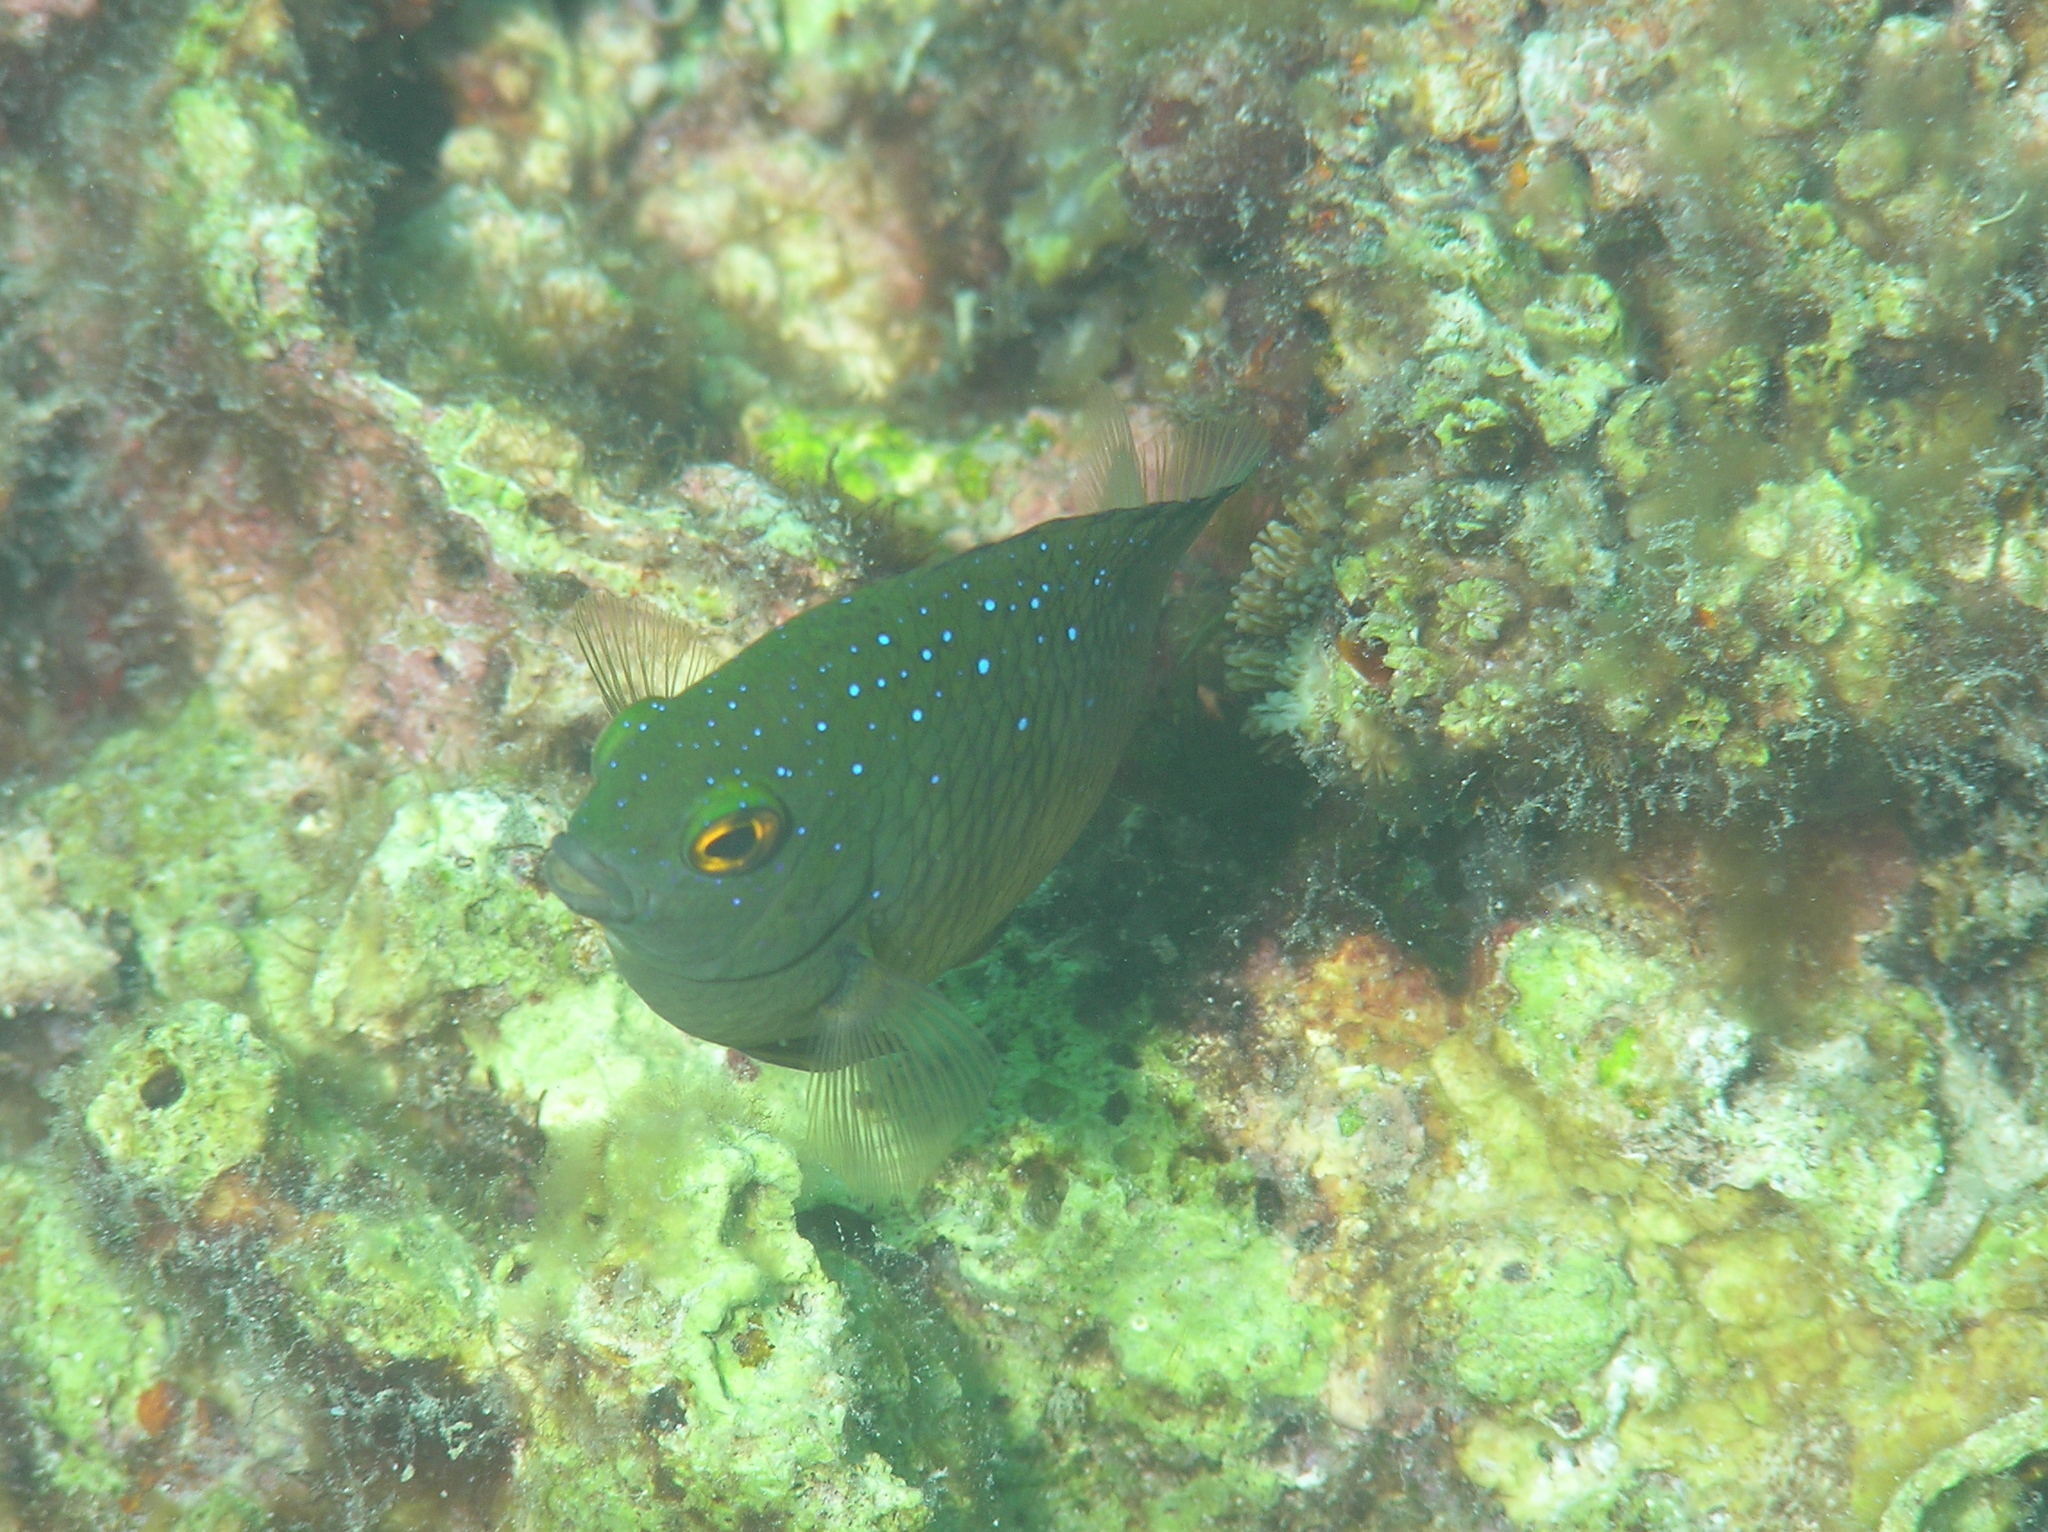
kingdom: Animalia
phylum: Chordata
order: Perciformes
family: Pomacentridae
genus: Plectroglyphidodon
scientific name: Plectroglyphidodon lacrymatus
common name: Jewel damsel
